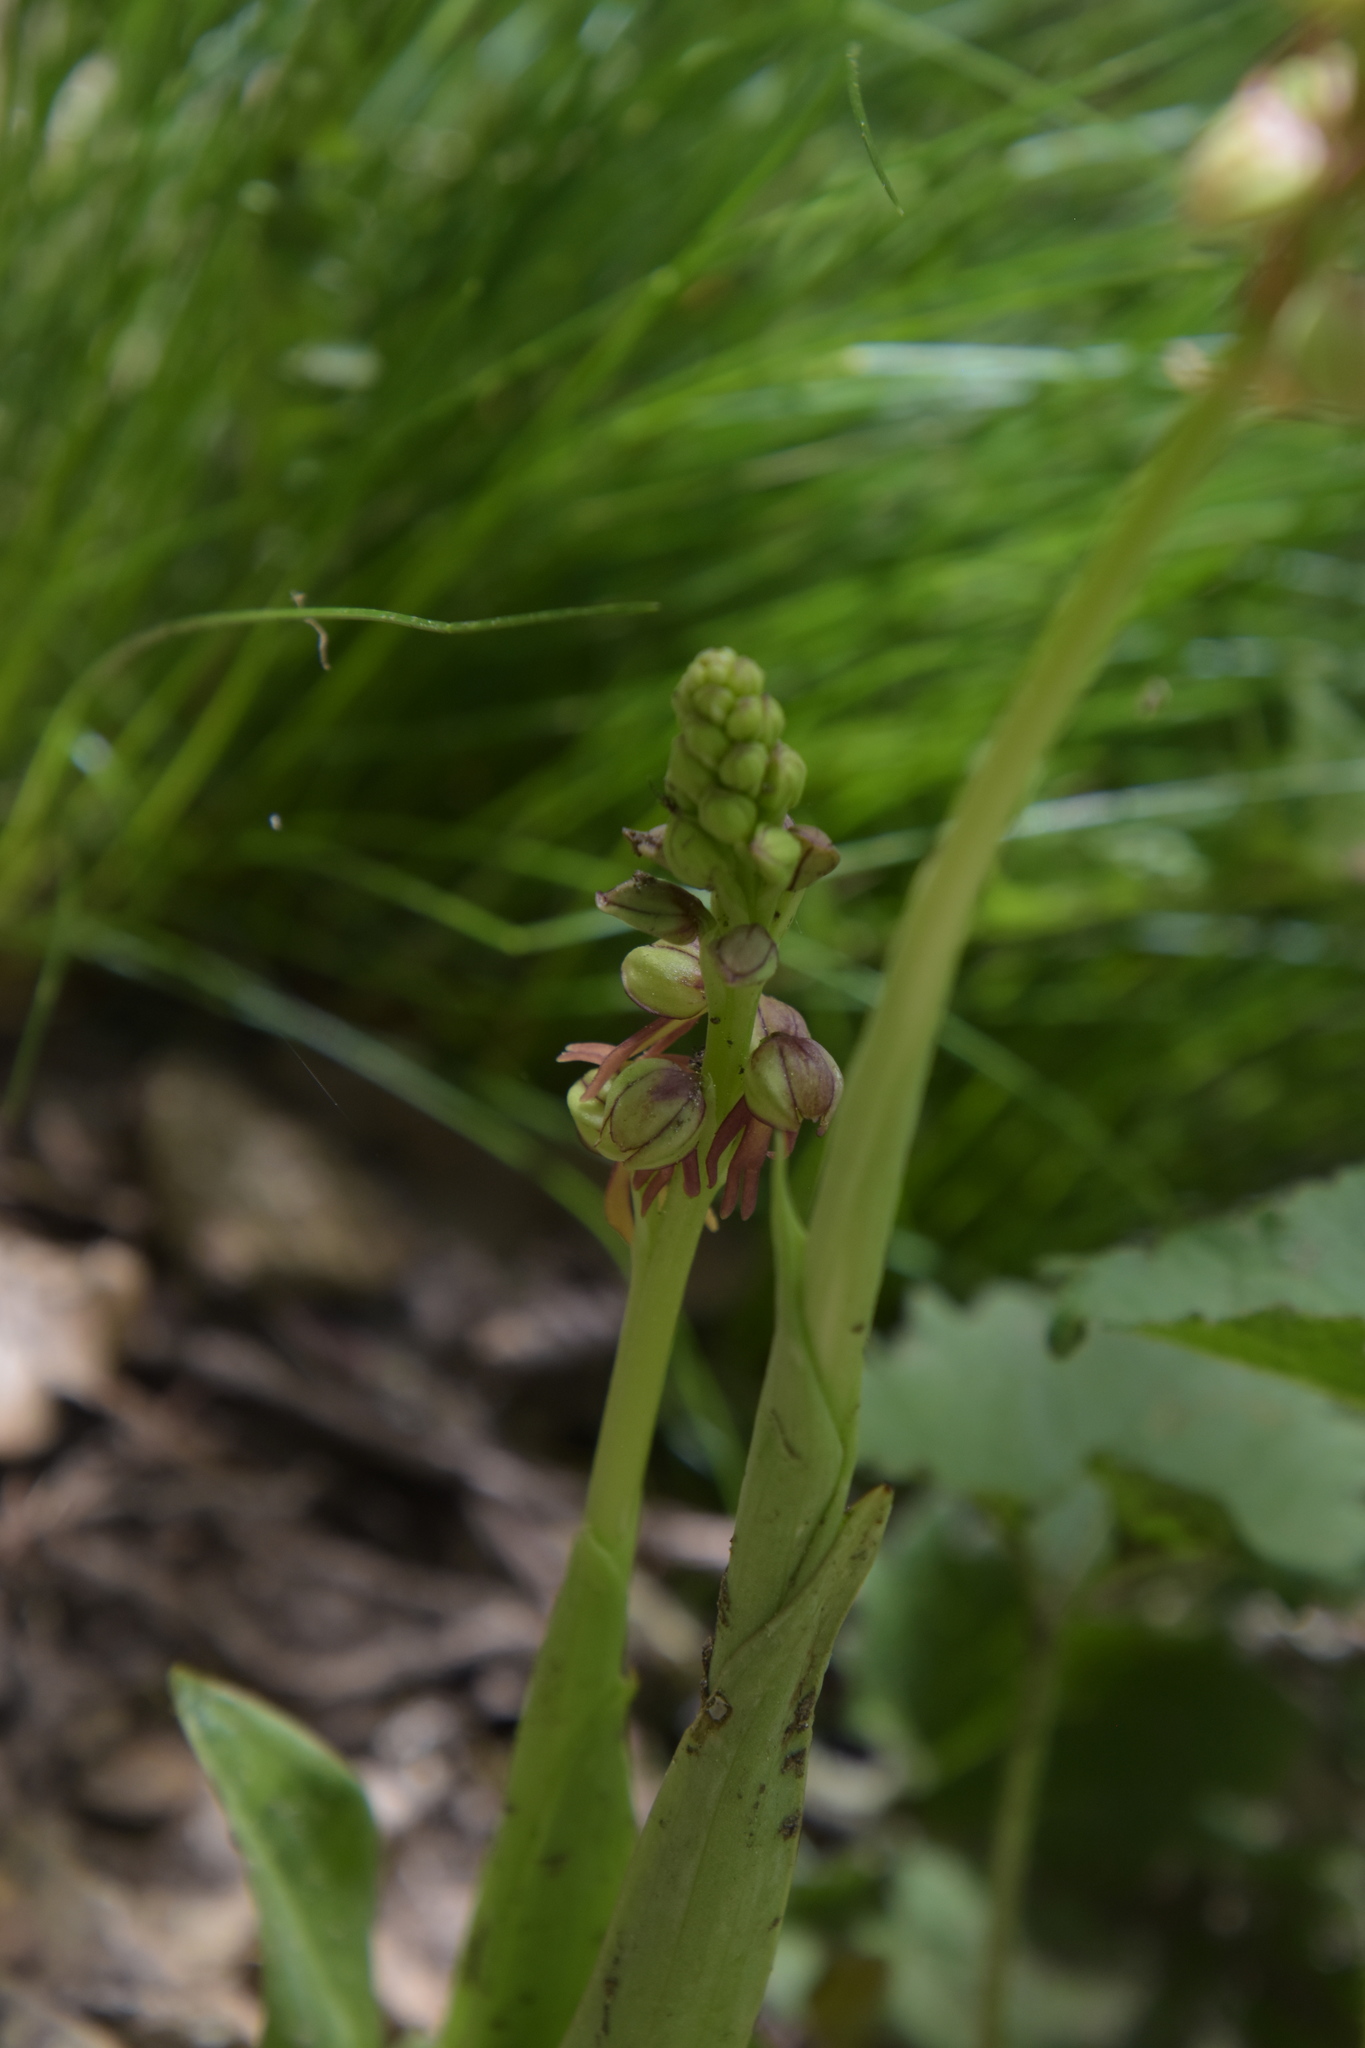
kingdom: Plantae
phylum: Tracheophyta
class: Liliopsida
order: Asparagales
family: Orchidaceae
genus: Orchis
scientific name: Orchis anthropophora
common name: Man orchid
